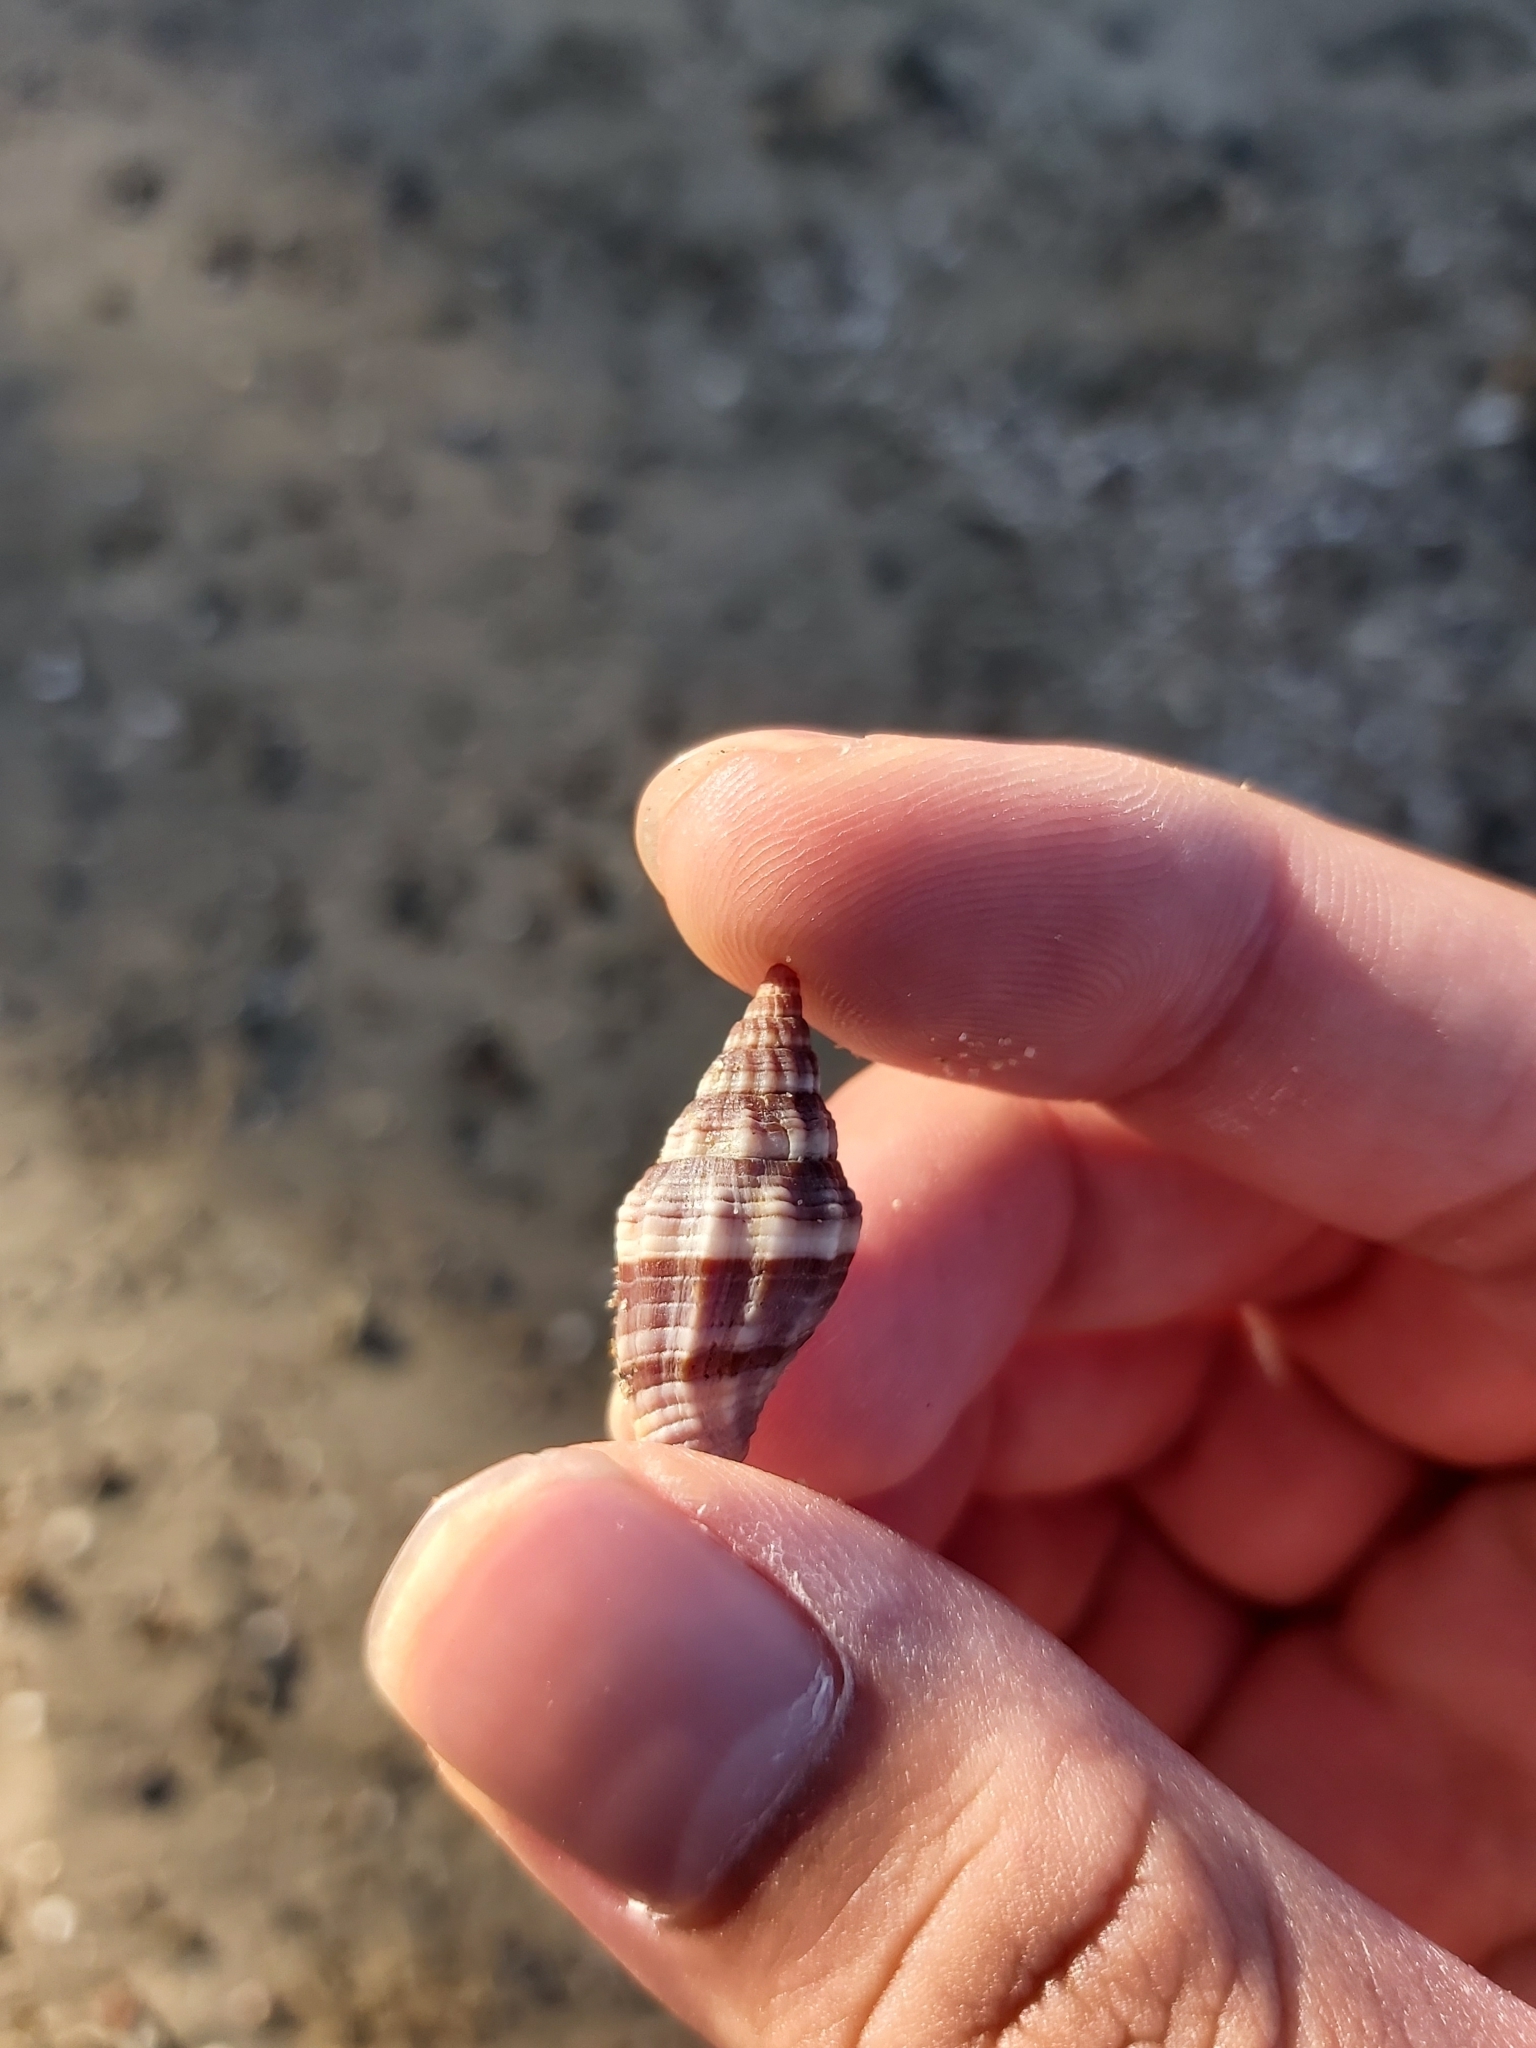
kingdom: Animalia
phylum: Mollusca
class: Gastropoda
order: Neogastropoda
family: Costellariidae
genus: Vexillum
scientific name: Vexillum rugosum
